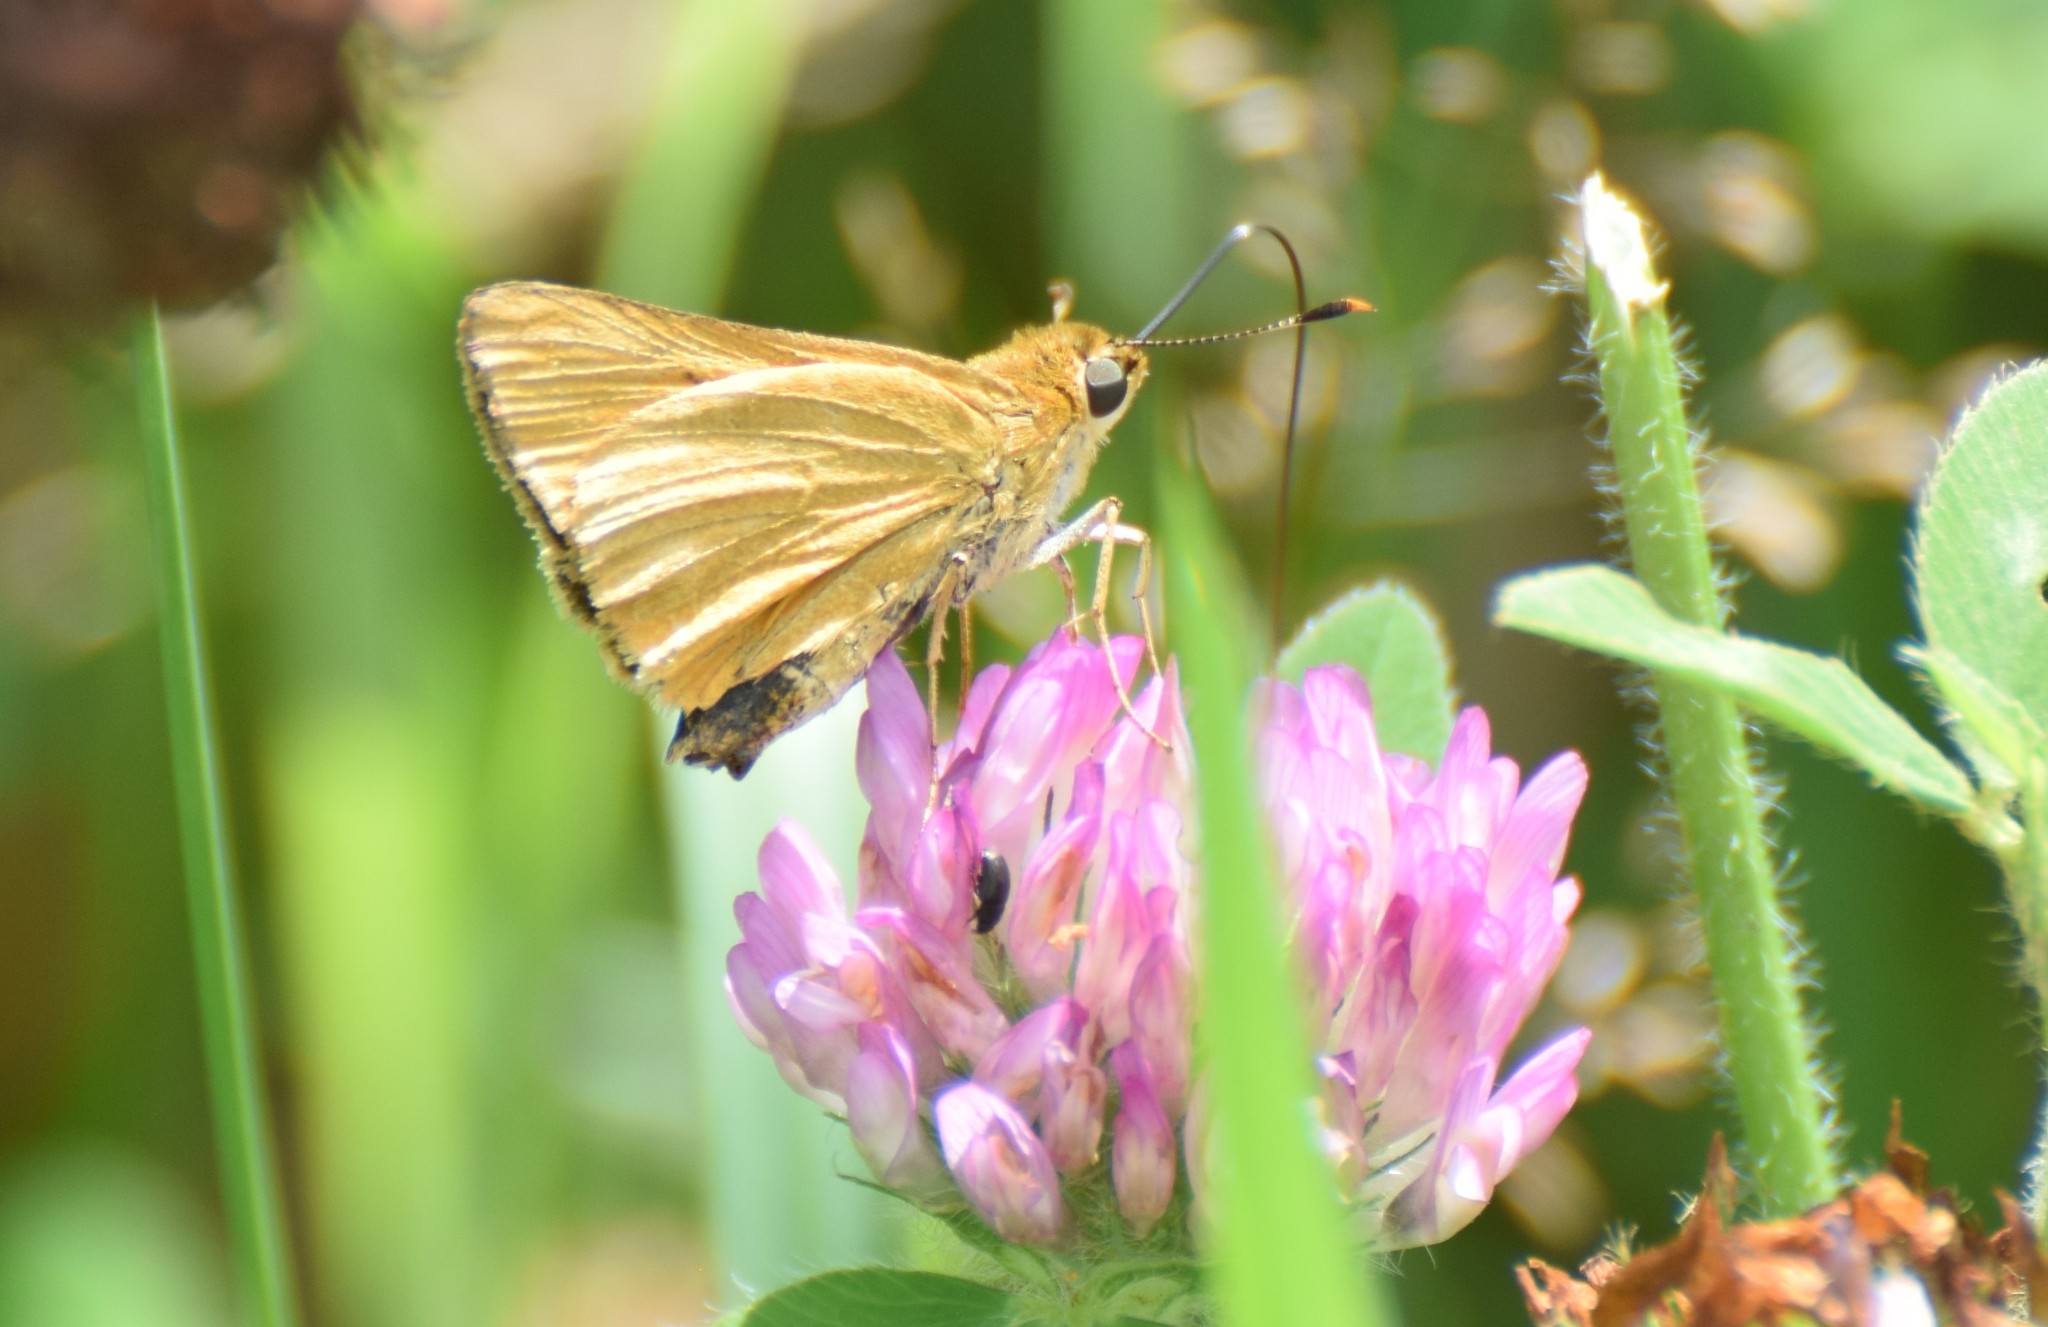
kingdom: Animalia
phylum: Arthropoda
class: Insecta
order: Lepidoptera
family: Hesperiidae
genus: Atrytone
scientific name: Atrytone delaware
